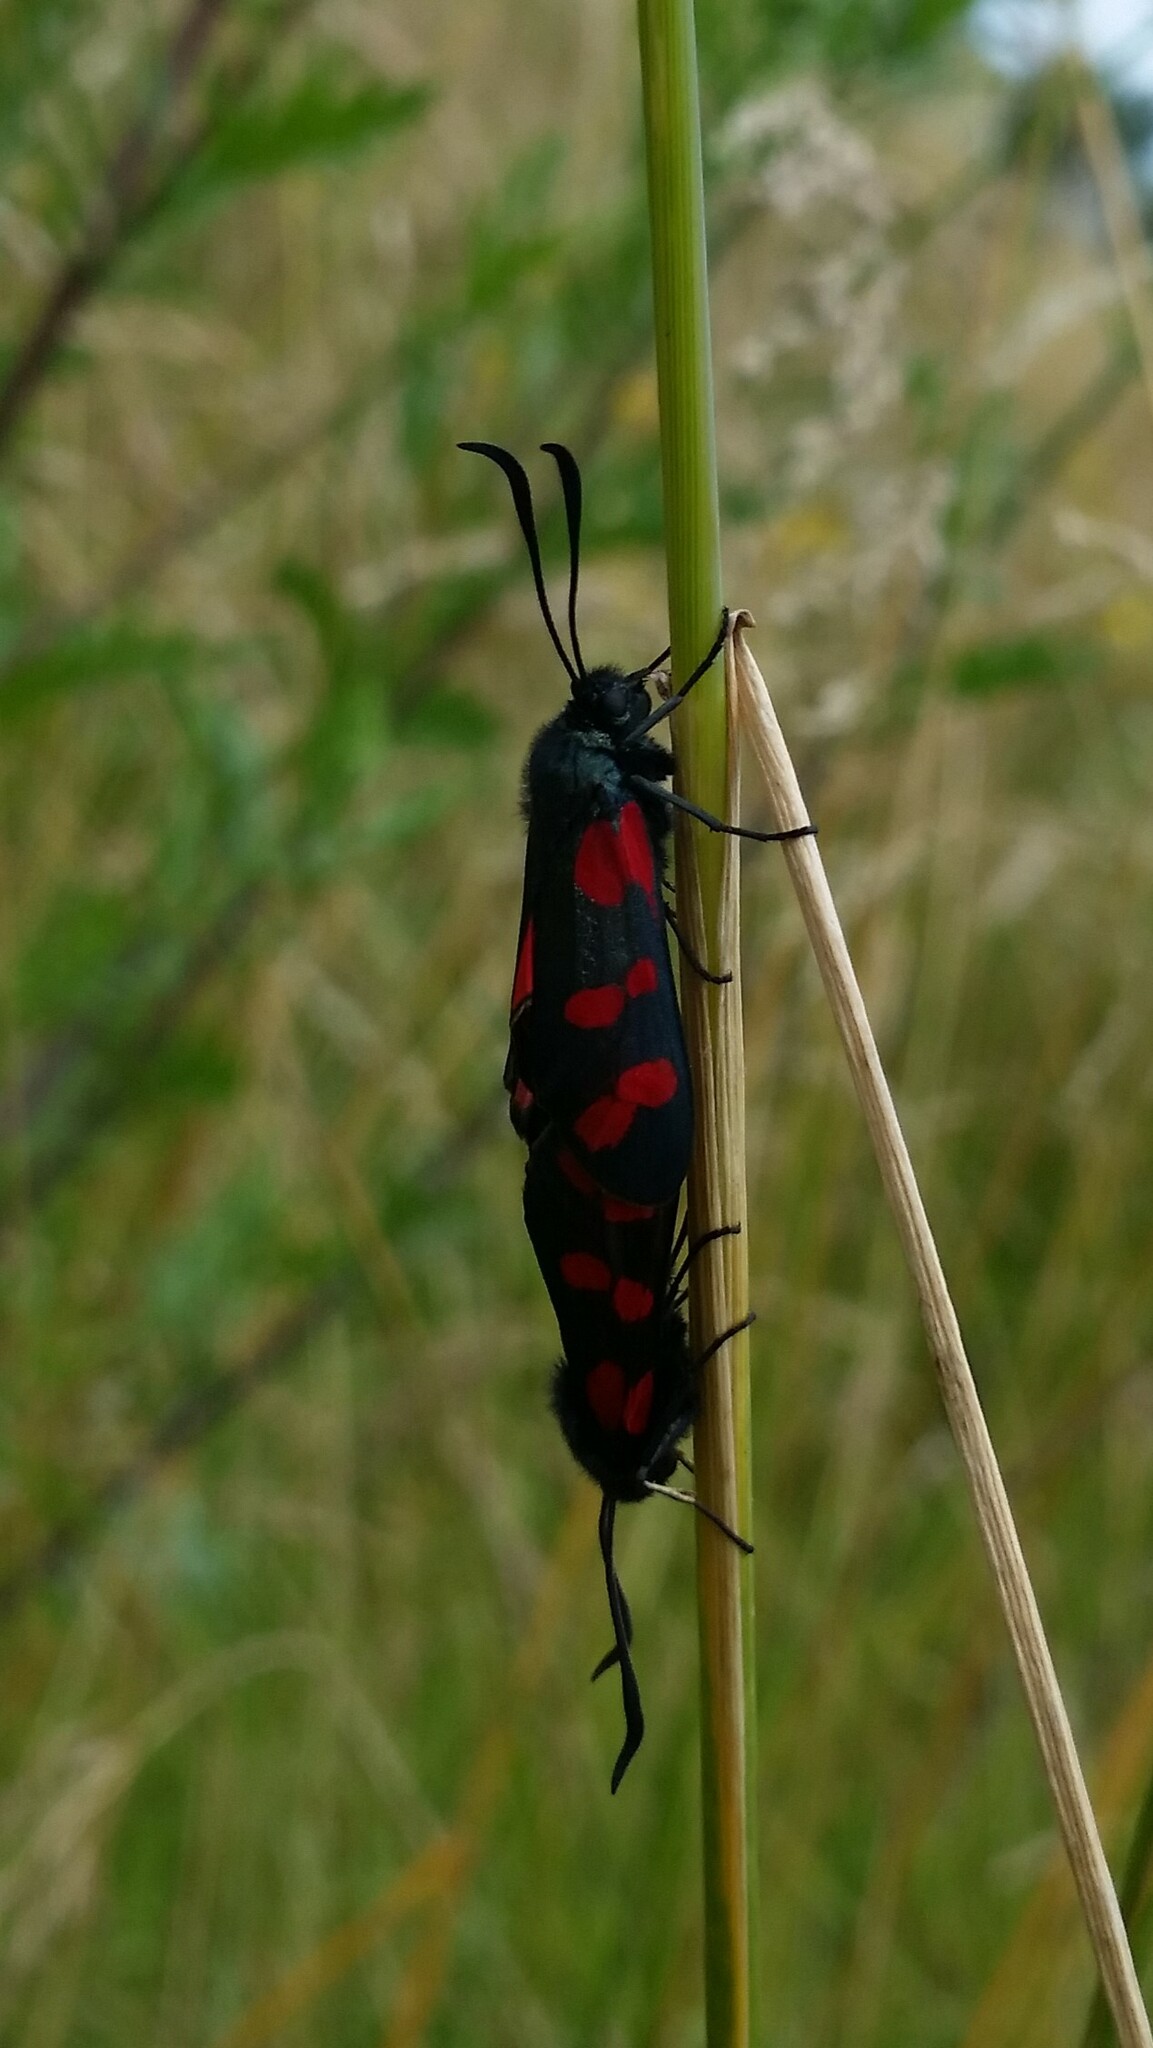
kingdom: Animalia
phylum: Arthropoda
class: Insecta
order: Lepidoptera
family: Zygaenidae
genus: Zygaena
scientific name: Zygaena filipendulae
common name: Six-spot burnet
